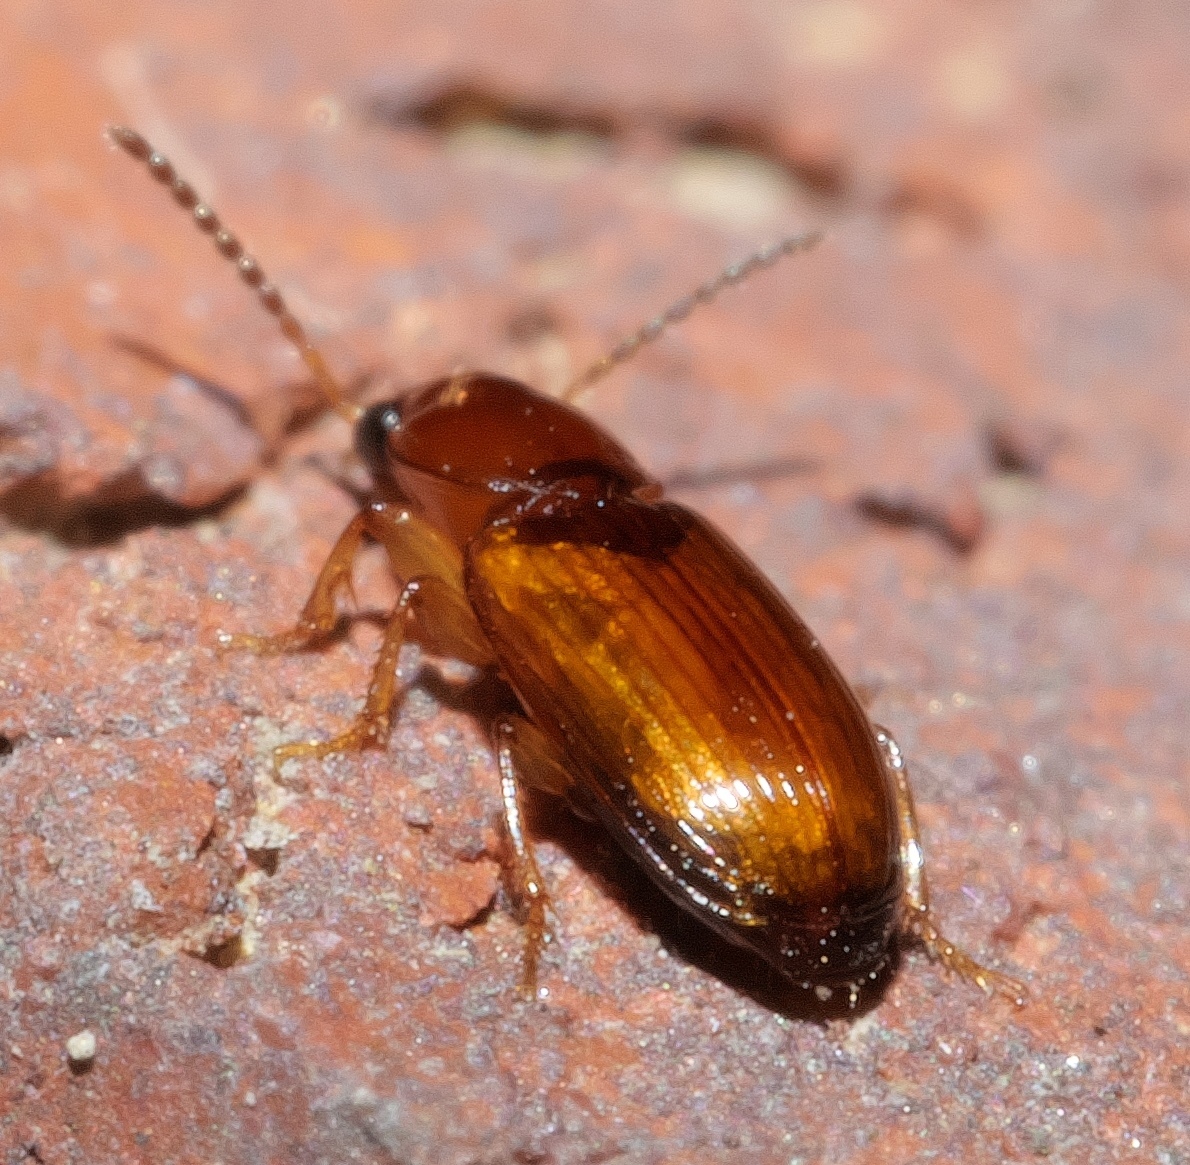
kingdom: Animalia
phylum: Arthropoda
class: Insecta
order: Coleoptera
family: Carabidae
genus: Acupalpus
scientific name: Acupalpus testaceus
